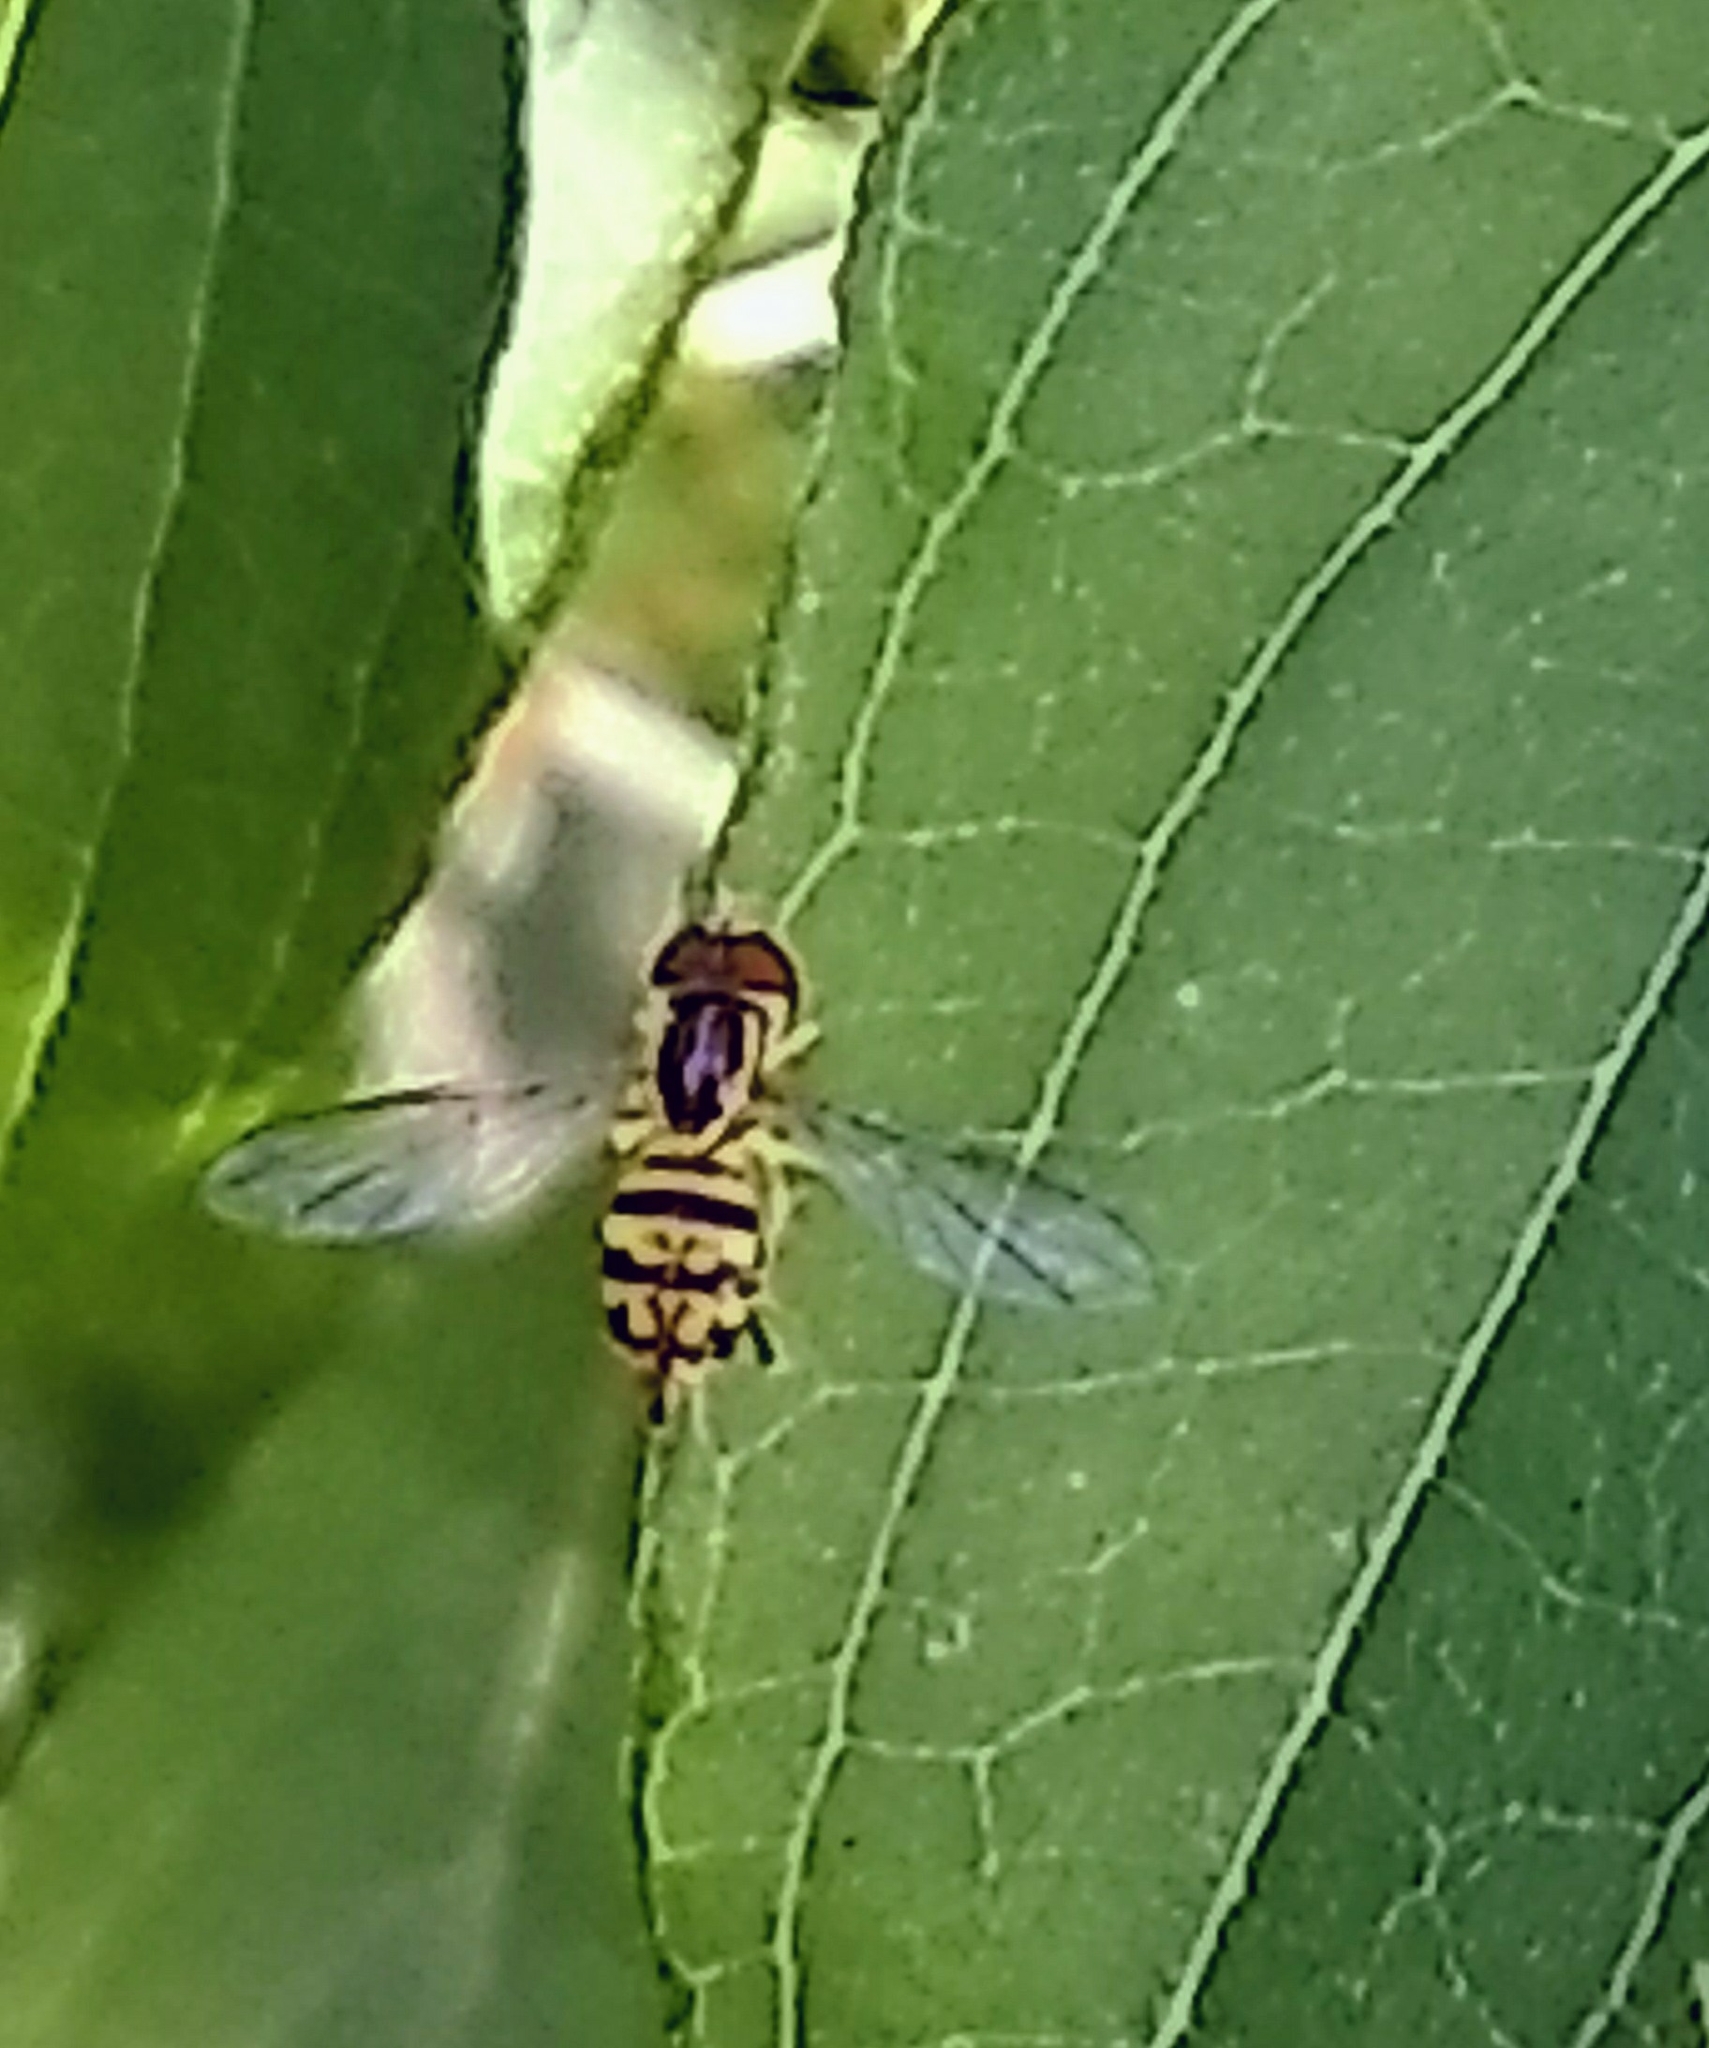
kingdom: Animalia
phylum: Arthropoda
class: Insecta
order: Diptera
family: Syrphidae
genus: Toxomerus
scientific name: Toxomerus geminatus
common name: Eastern calligrapher
